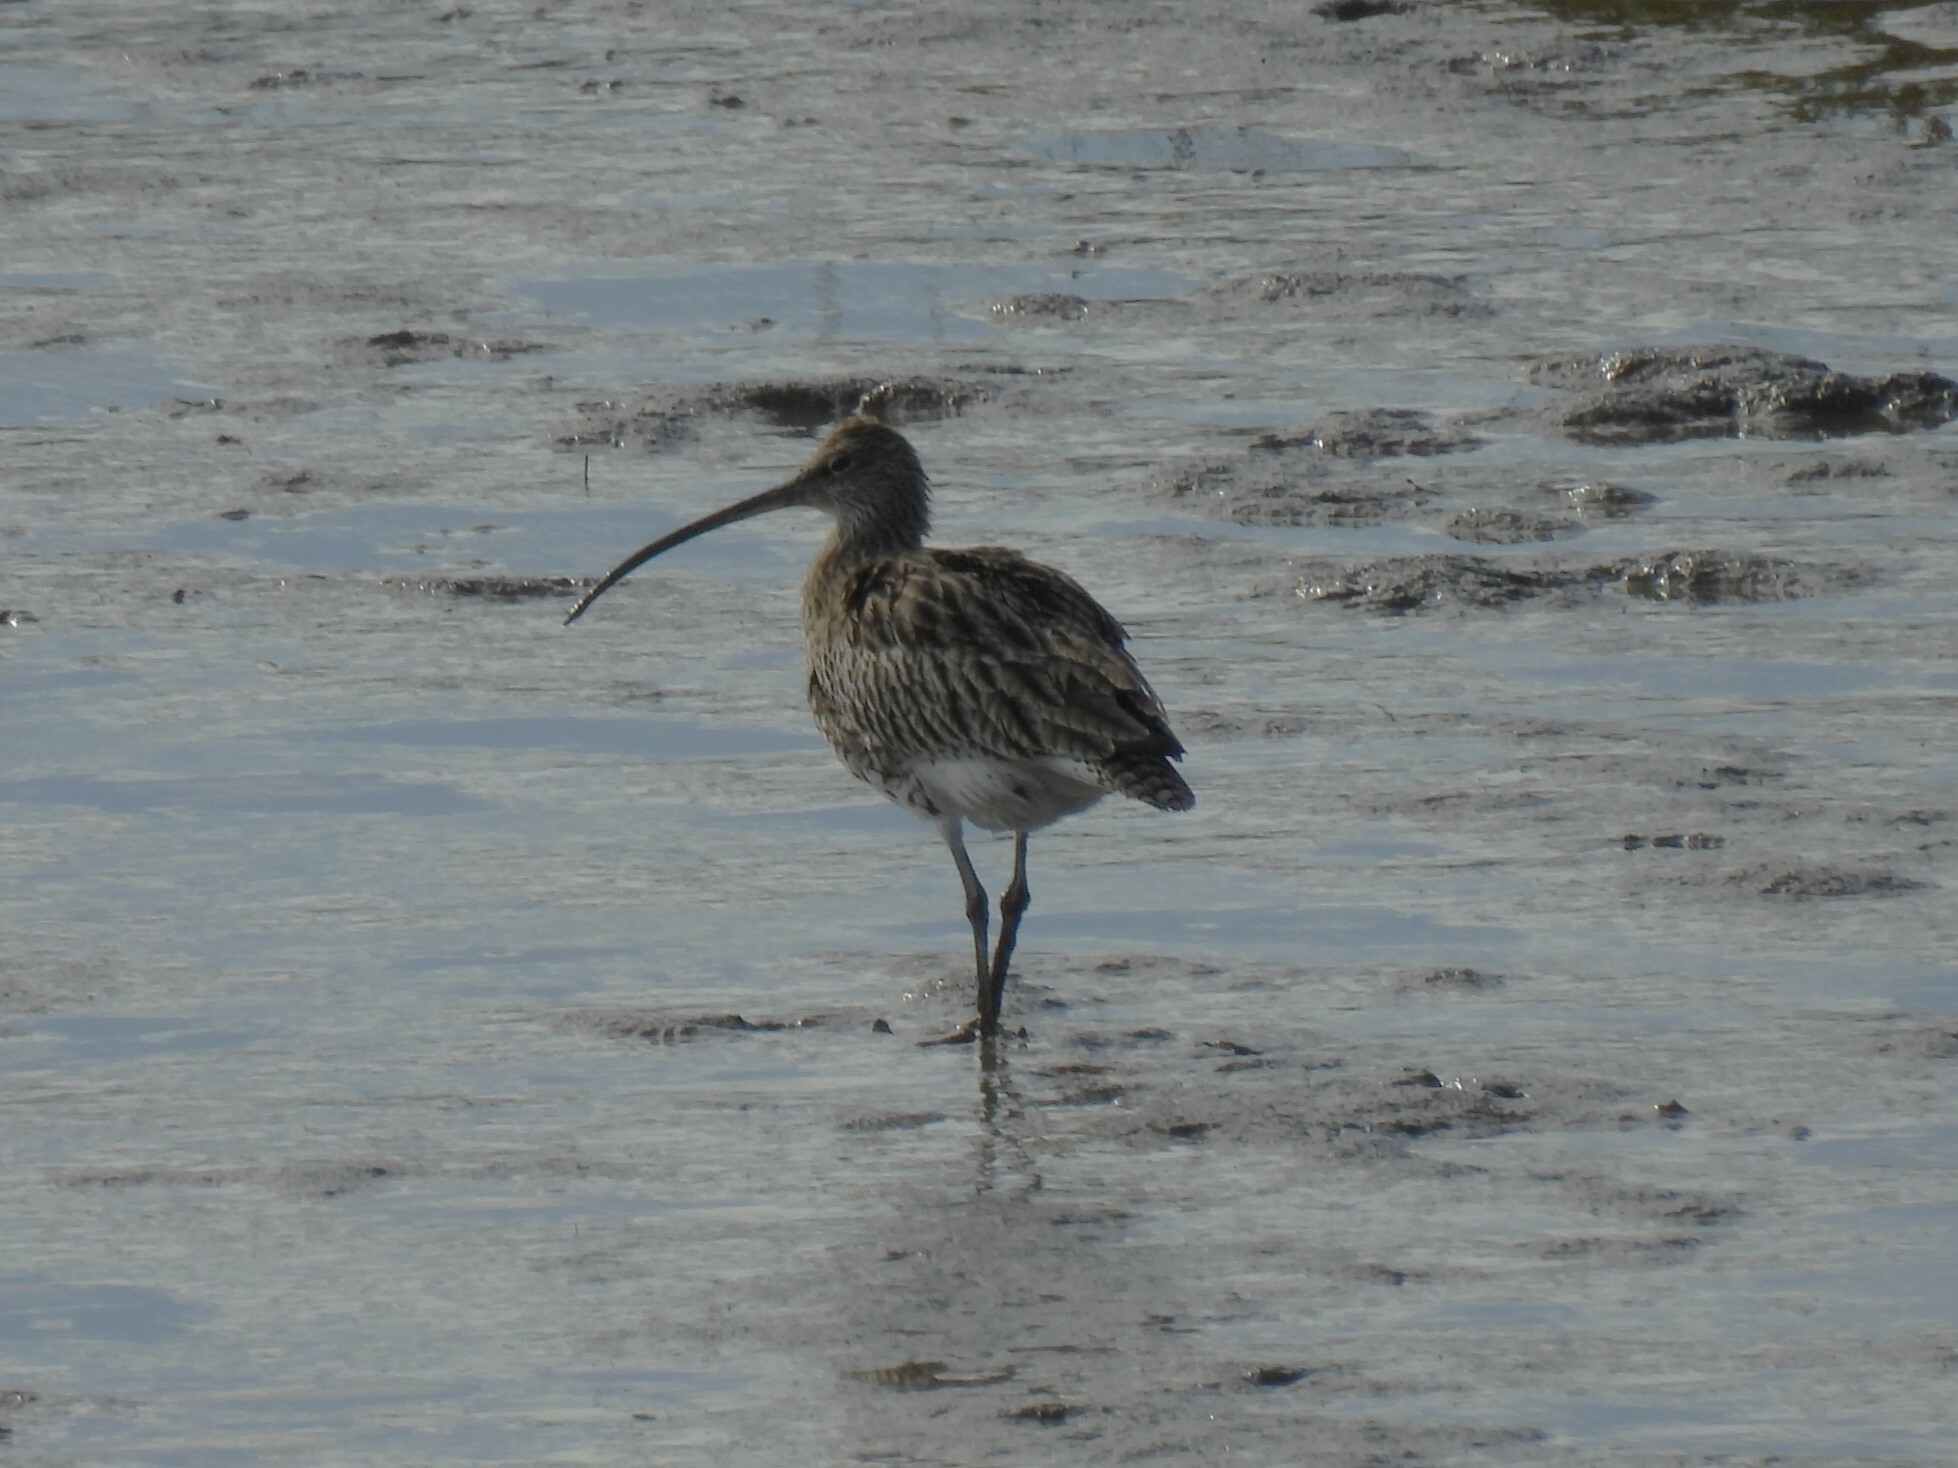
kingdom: Animalia
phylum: Chordata
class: Aves
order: Charadriiformes
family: Scolopacidae
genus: Numenius
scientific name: Numenius arquata
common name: Eurasian curlew
